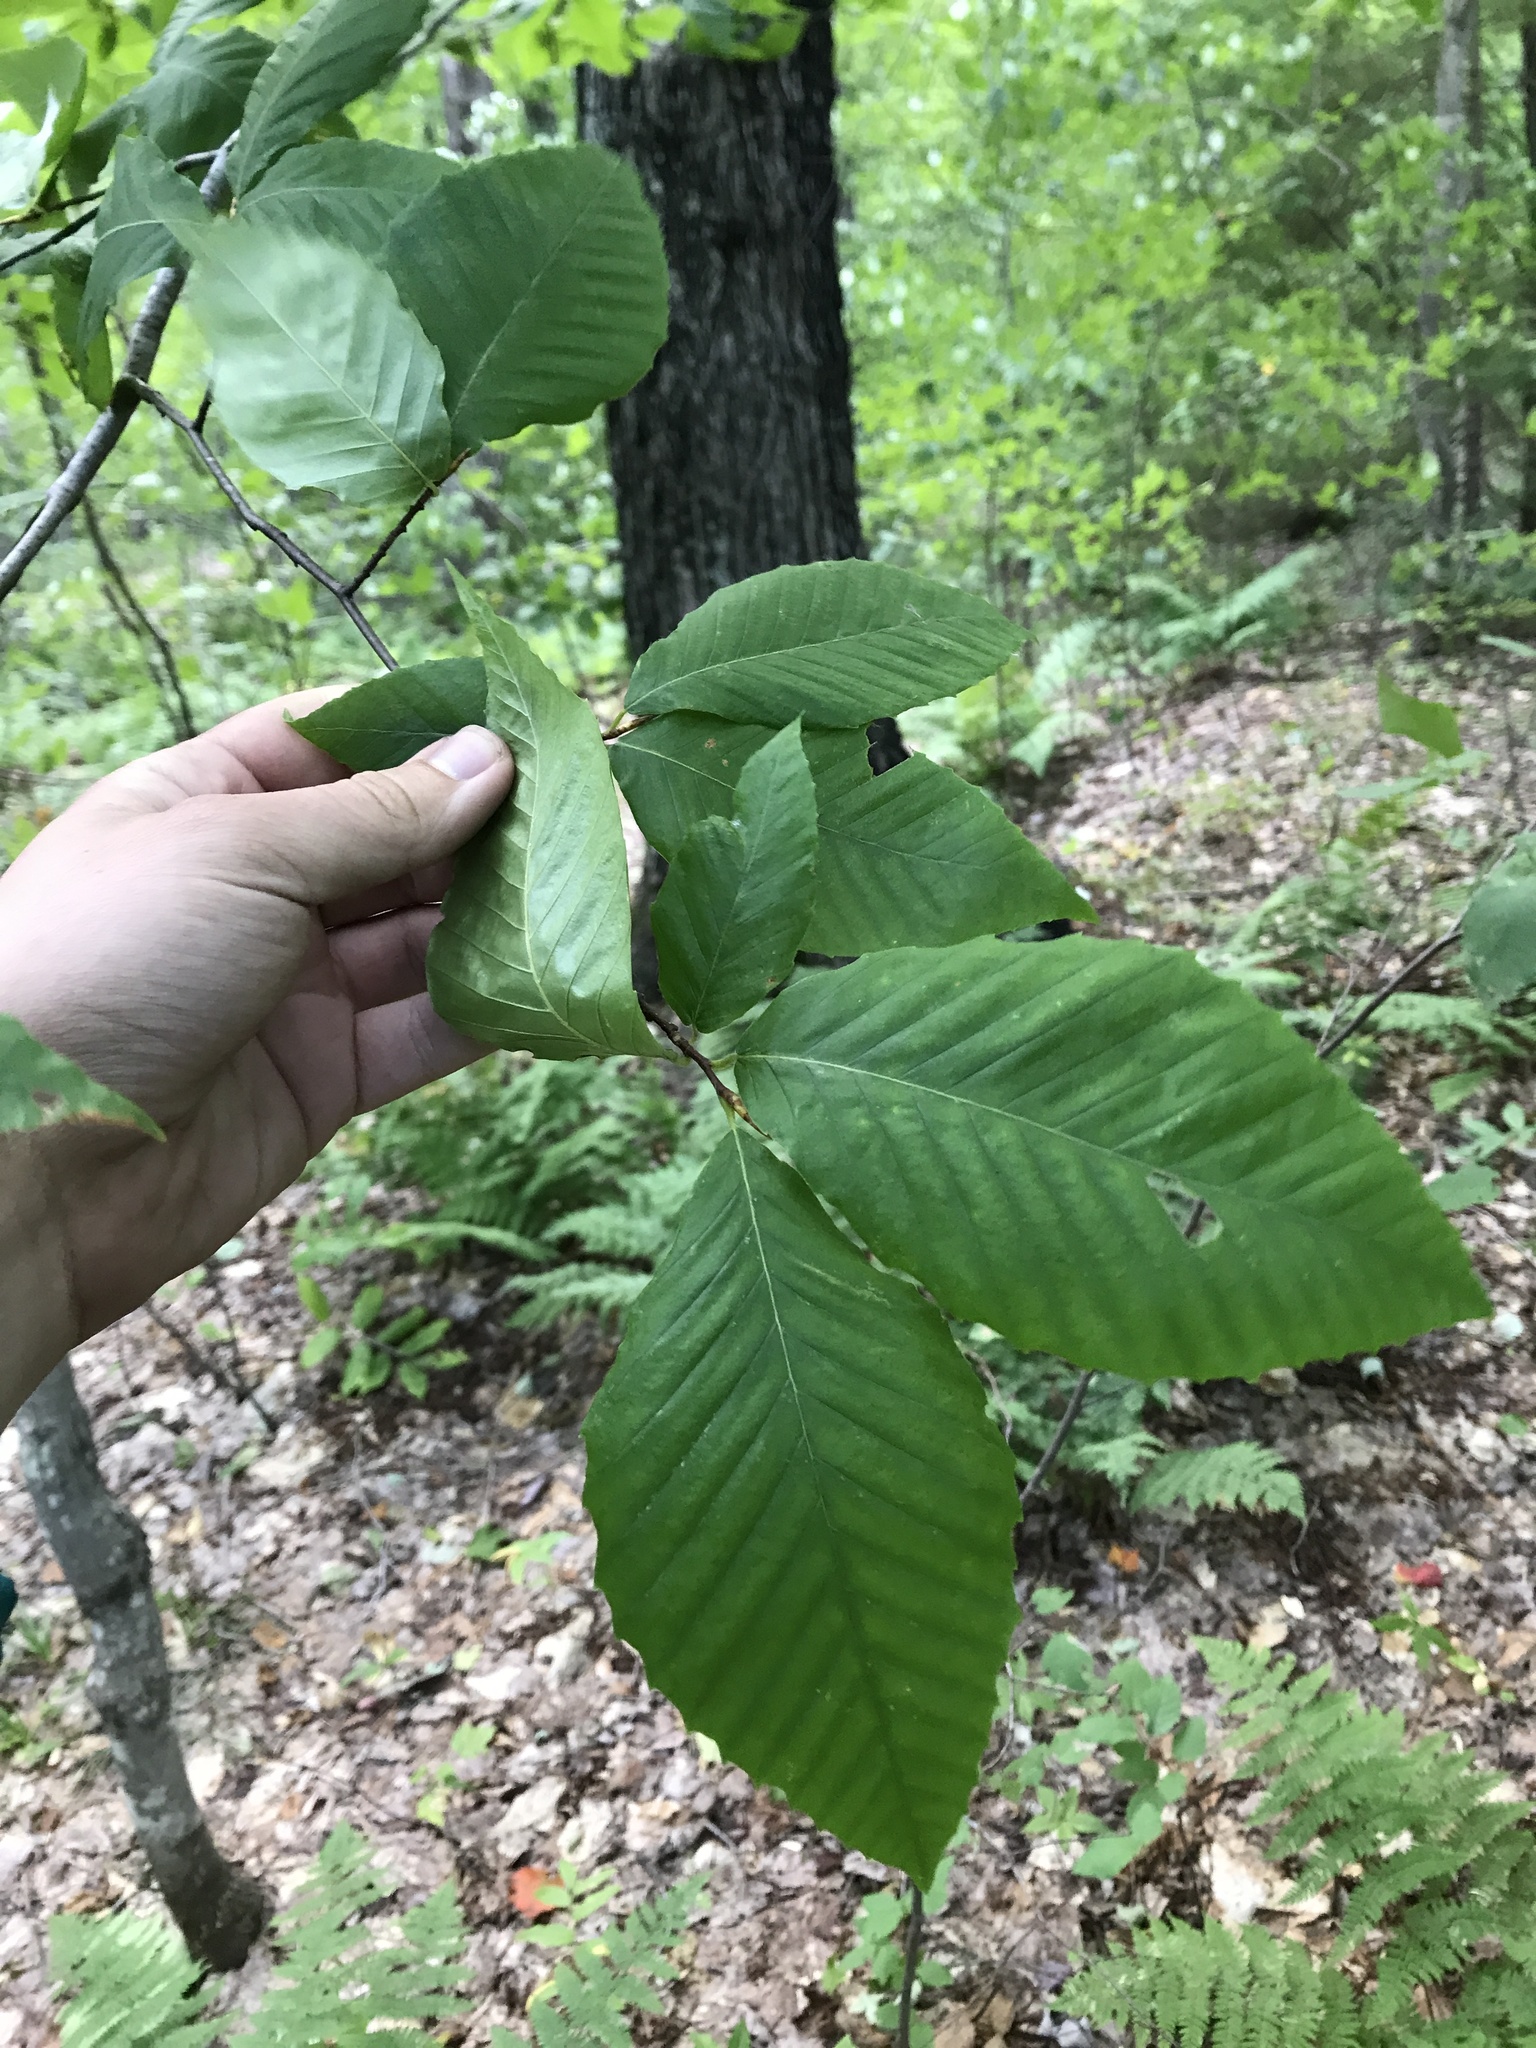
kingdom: Plantae
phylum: Tracheophyta
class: Magnoliopsida
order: Fagales
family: Fagaceae
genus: Fagus
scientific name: Fagus grandifolia
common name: American beech
